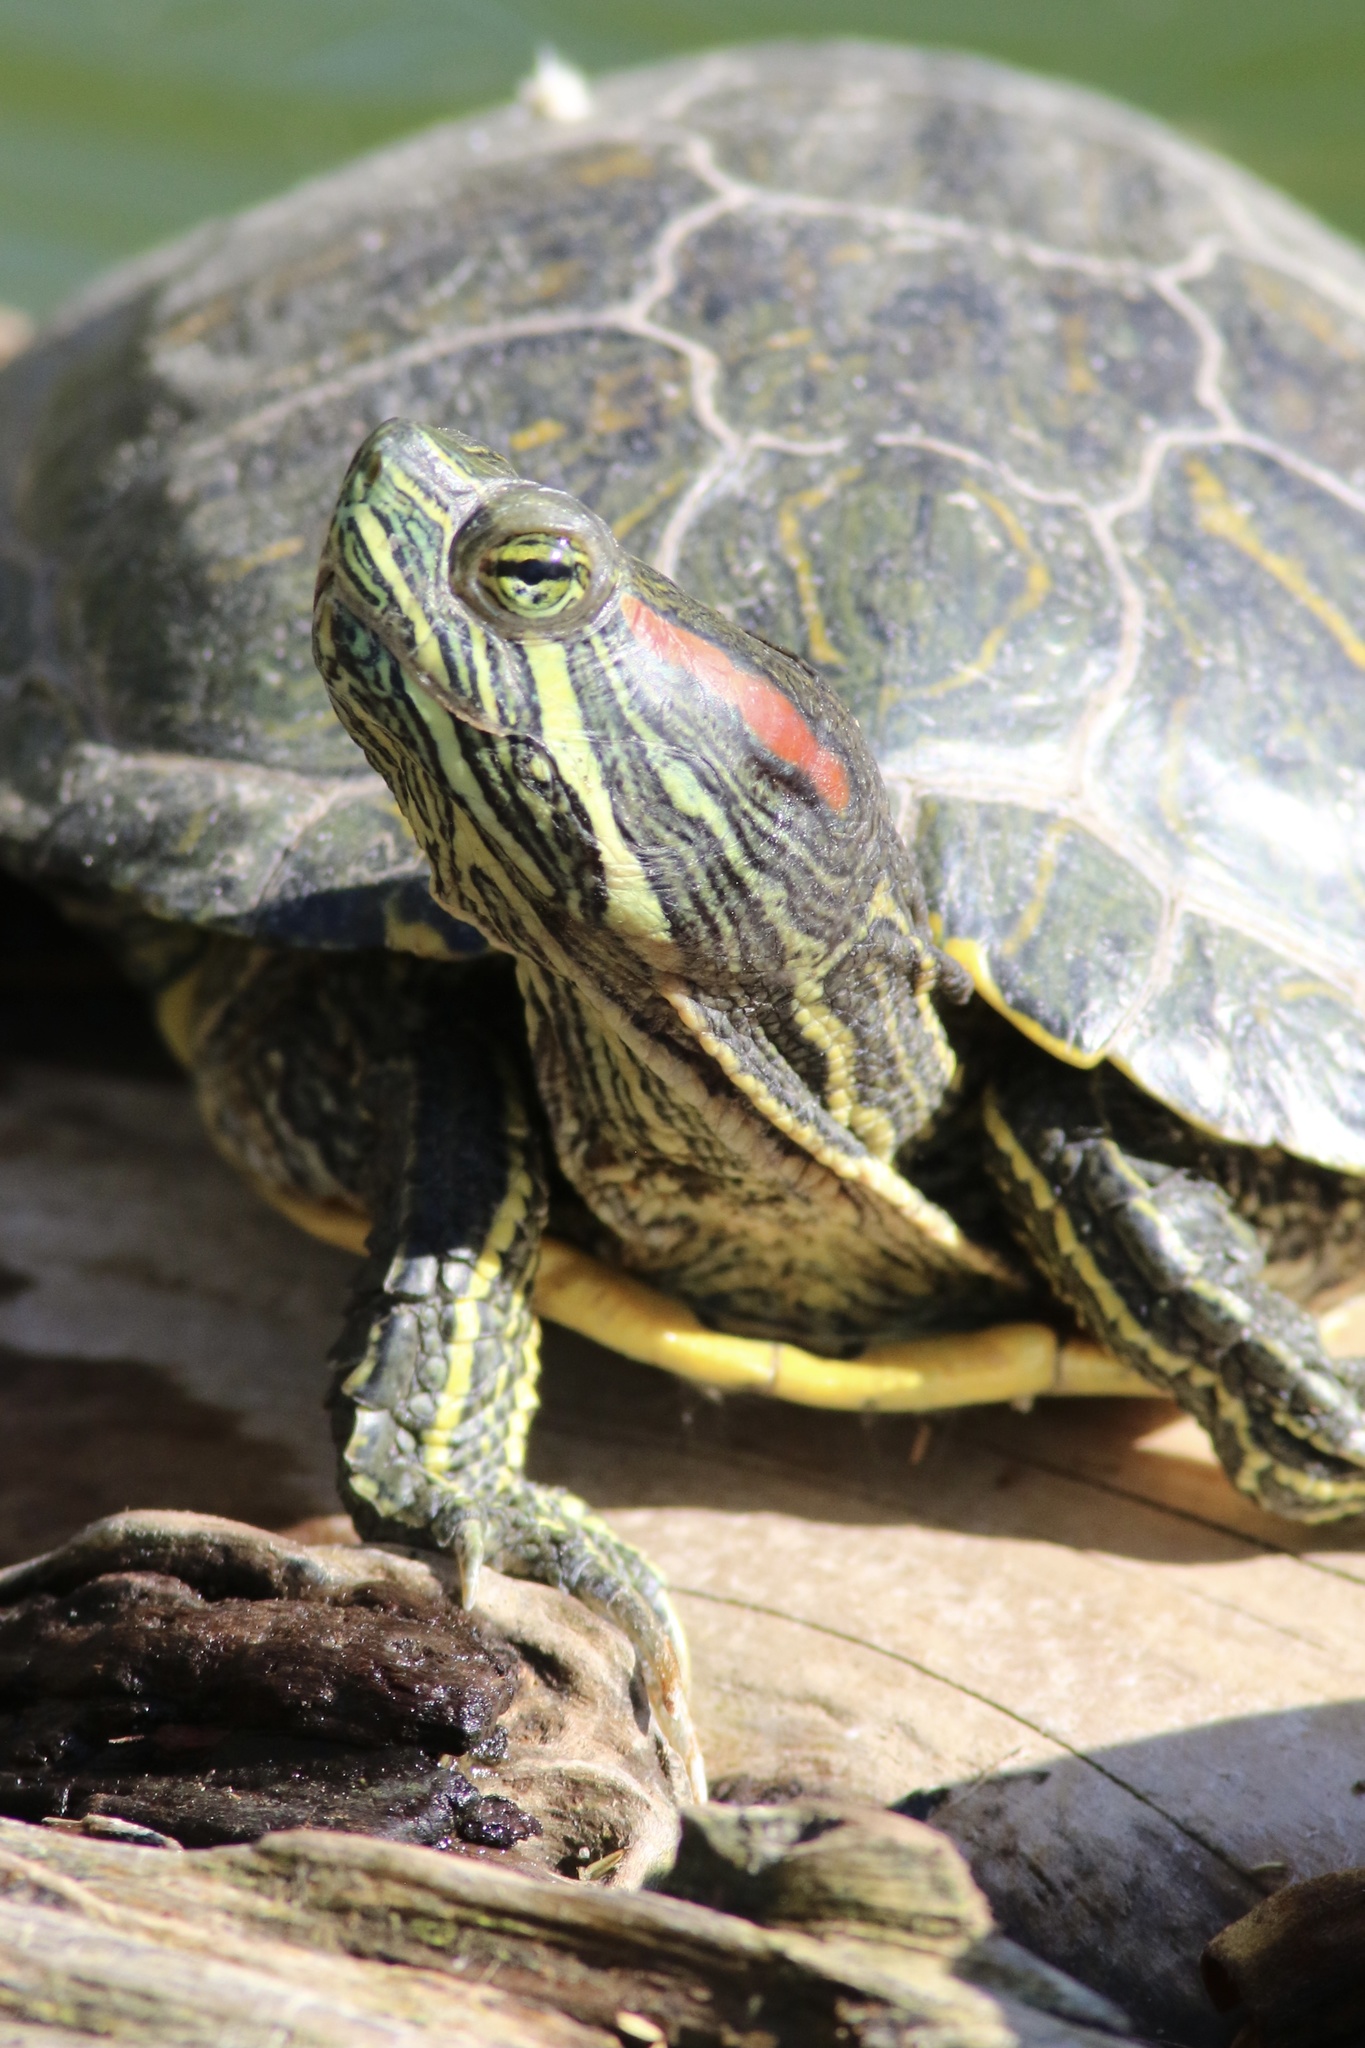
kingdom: Animalia
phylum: Chordata
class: Testudines
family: Emydidae
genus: Trachemys
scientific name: Trachemys scripta
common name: Slider
